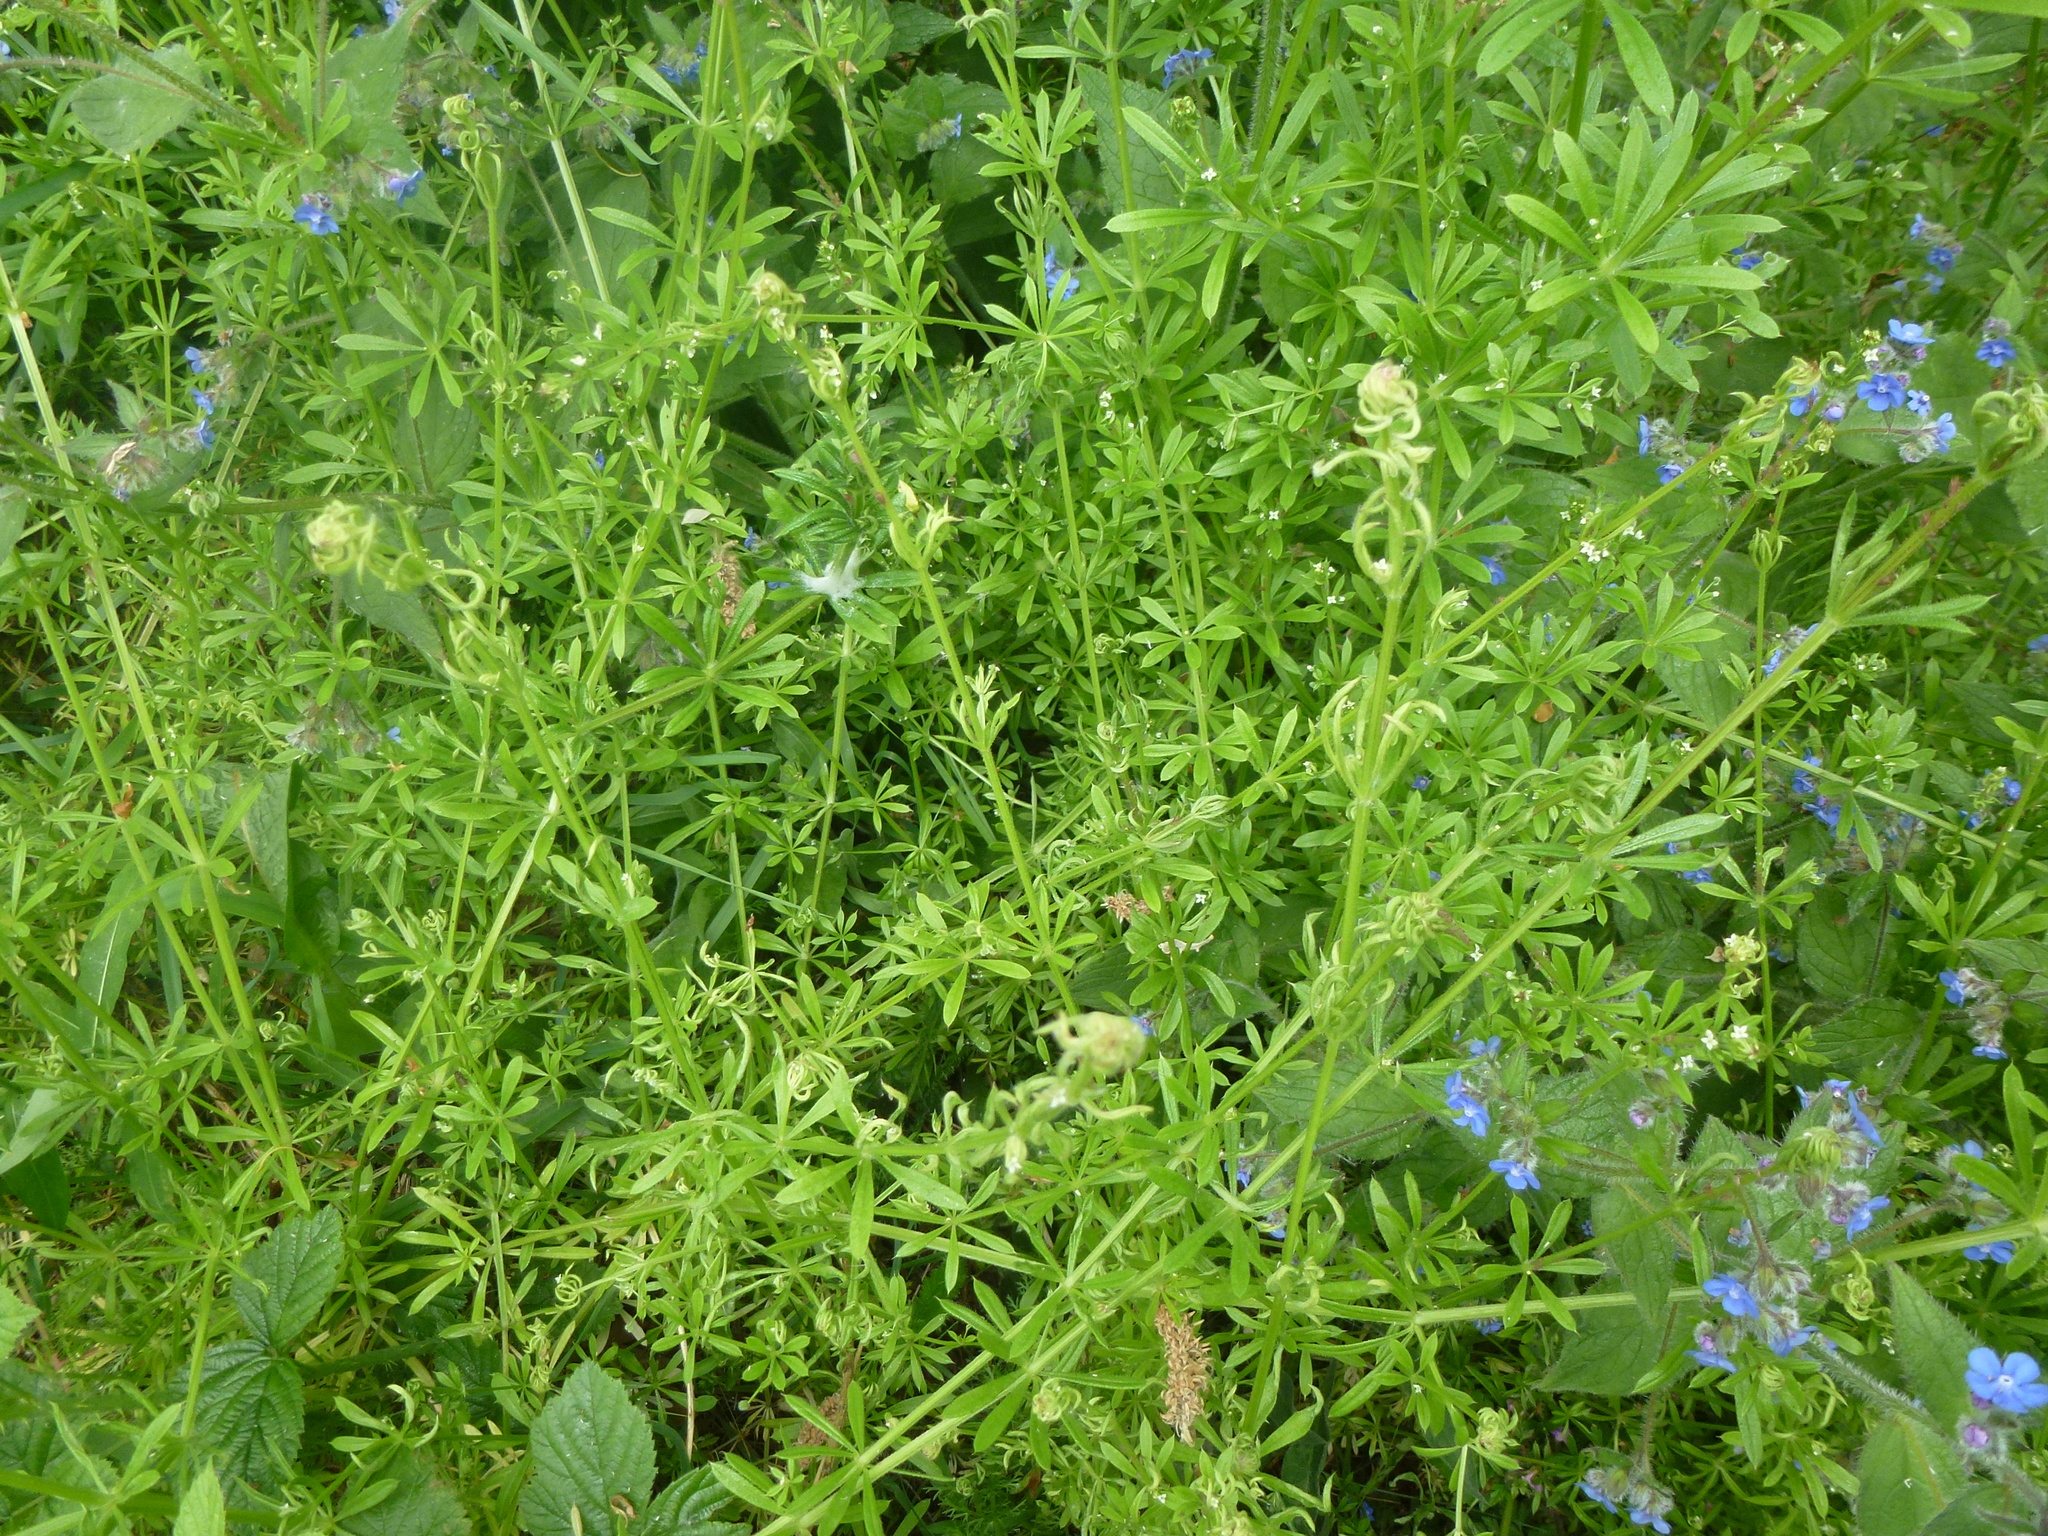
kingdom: Animalia
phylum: Arthropoda
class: Arachnida
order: Trombidiformes
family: Eriophyidae
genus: Cecidophyes
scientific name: Cecidophyes rouhollahi
